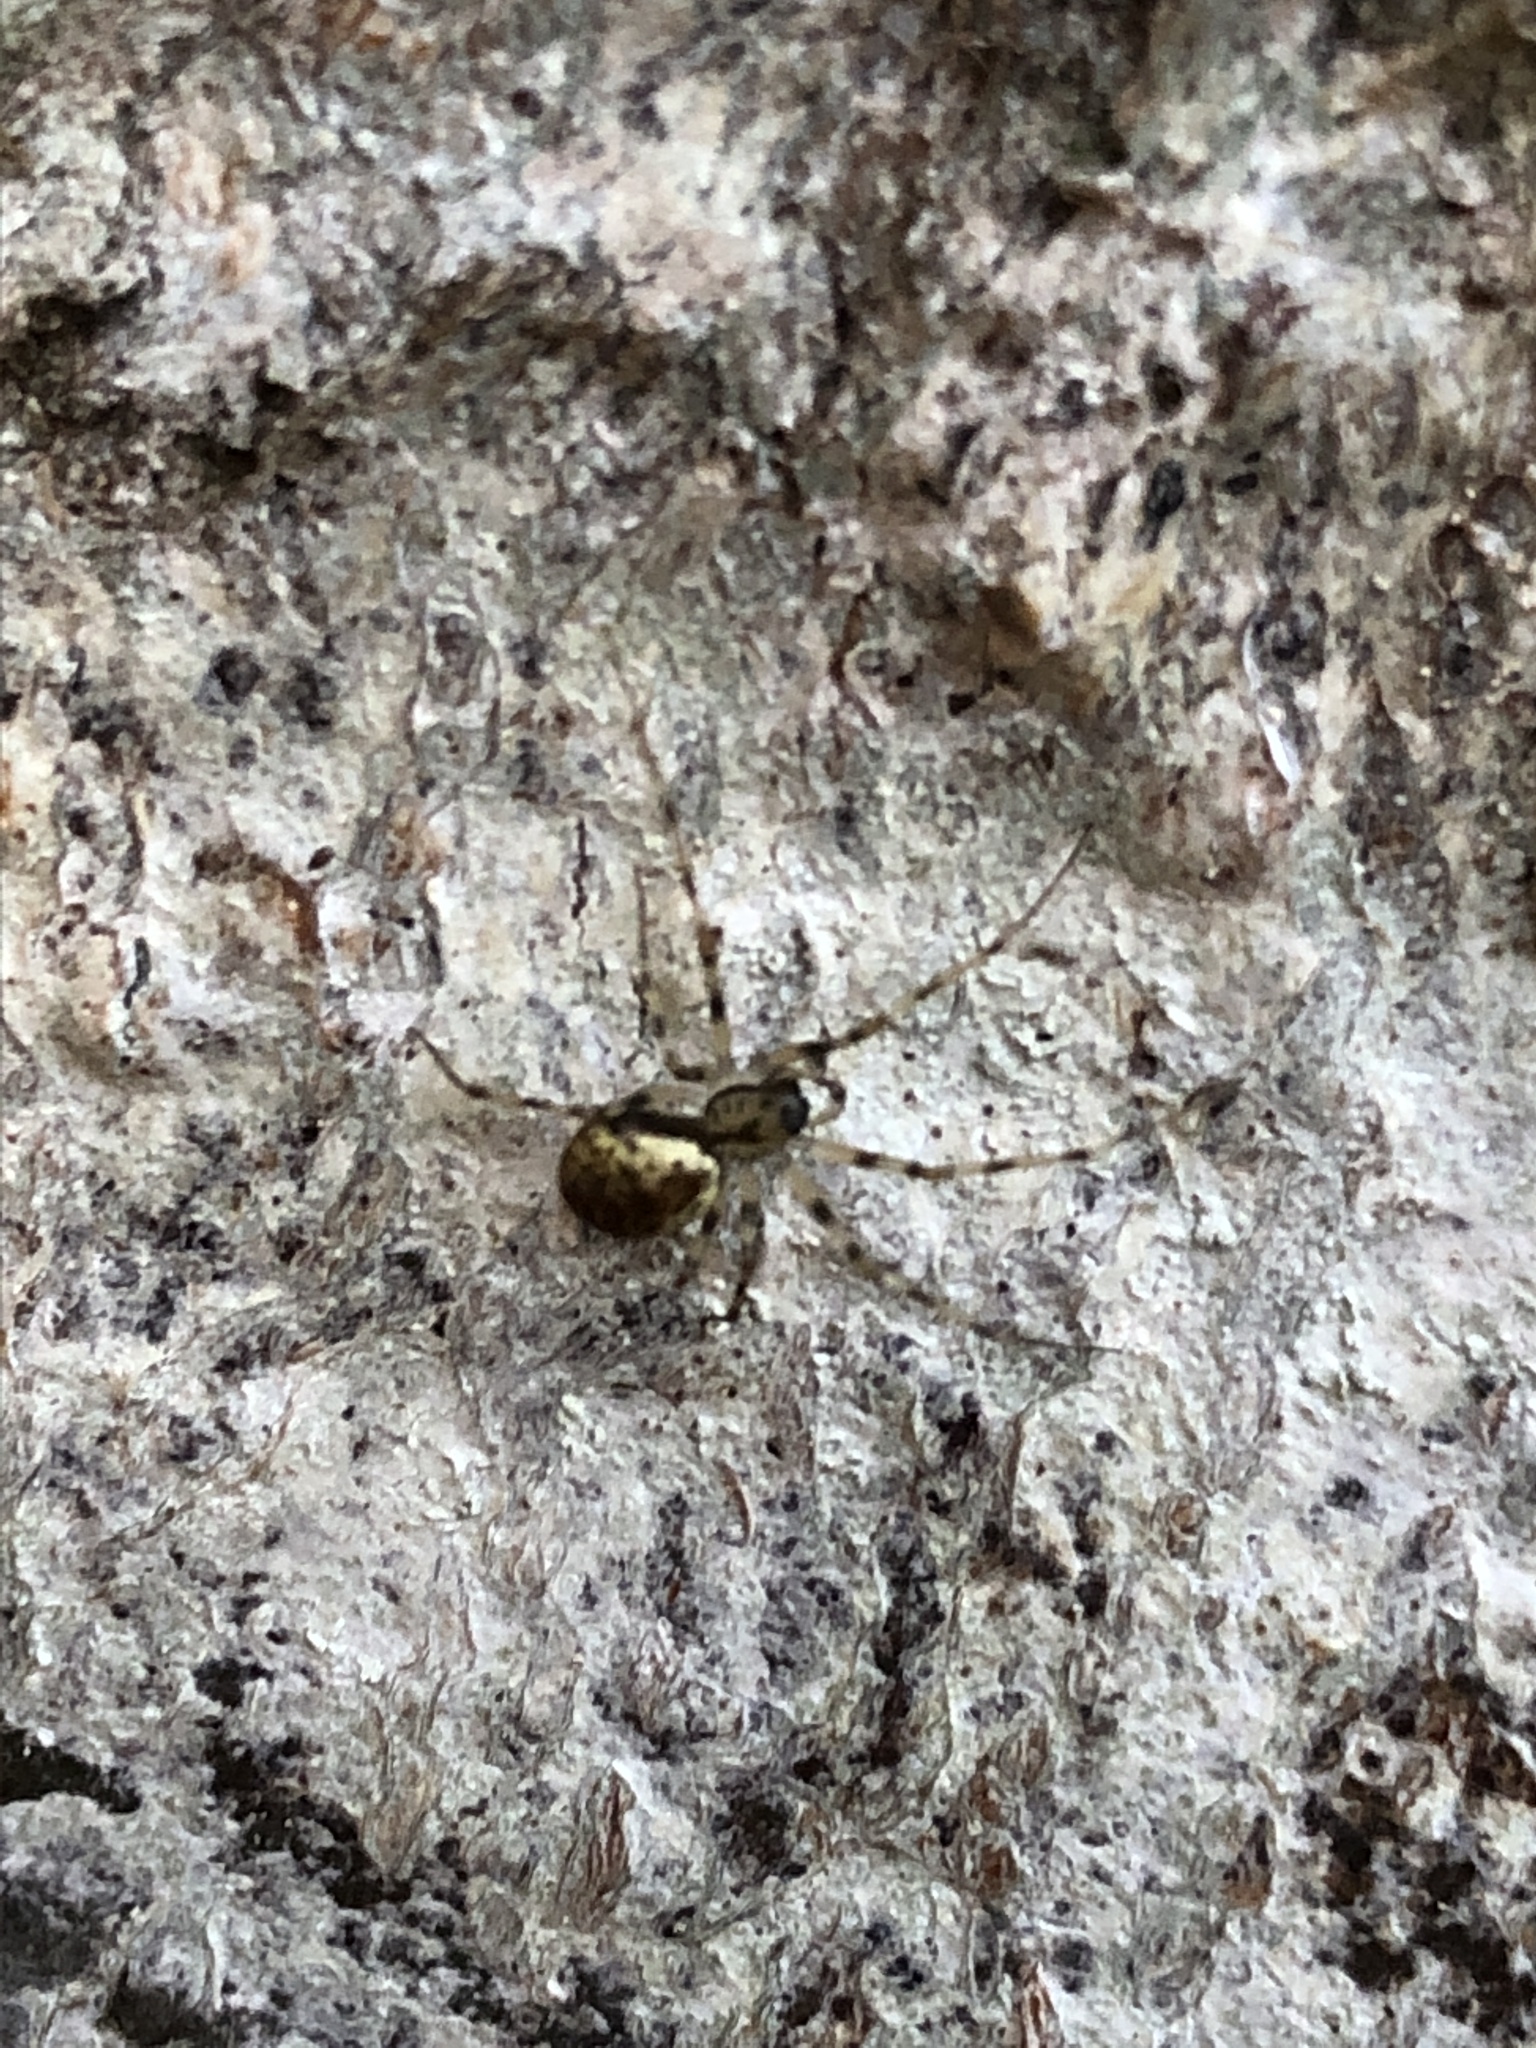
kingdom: Animalia
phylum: Arthropoda
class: Arachnida
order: Araneae
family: Linyphiidae
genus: Drapetisca
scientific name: Drapetisca socialis
